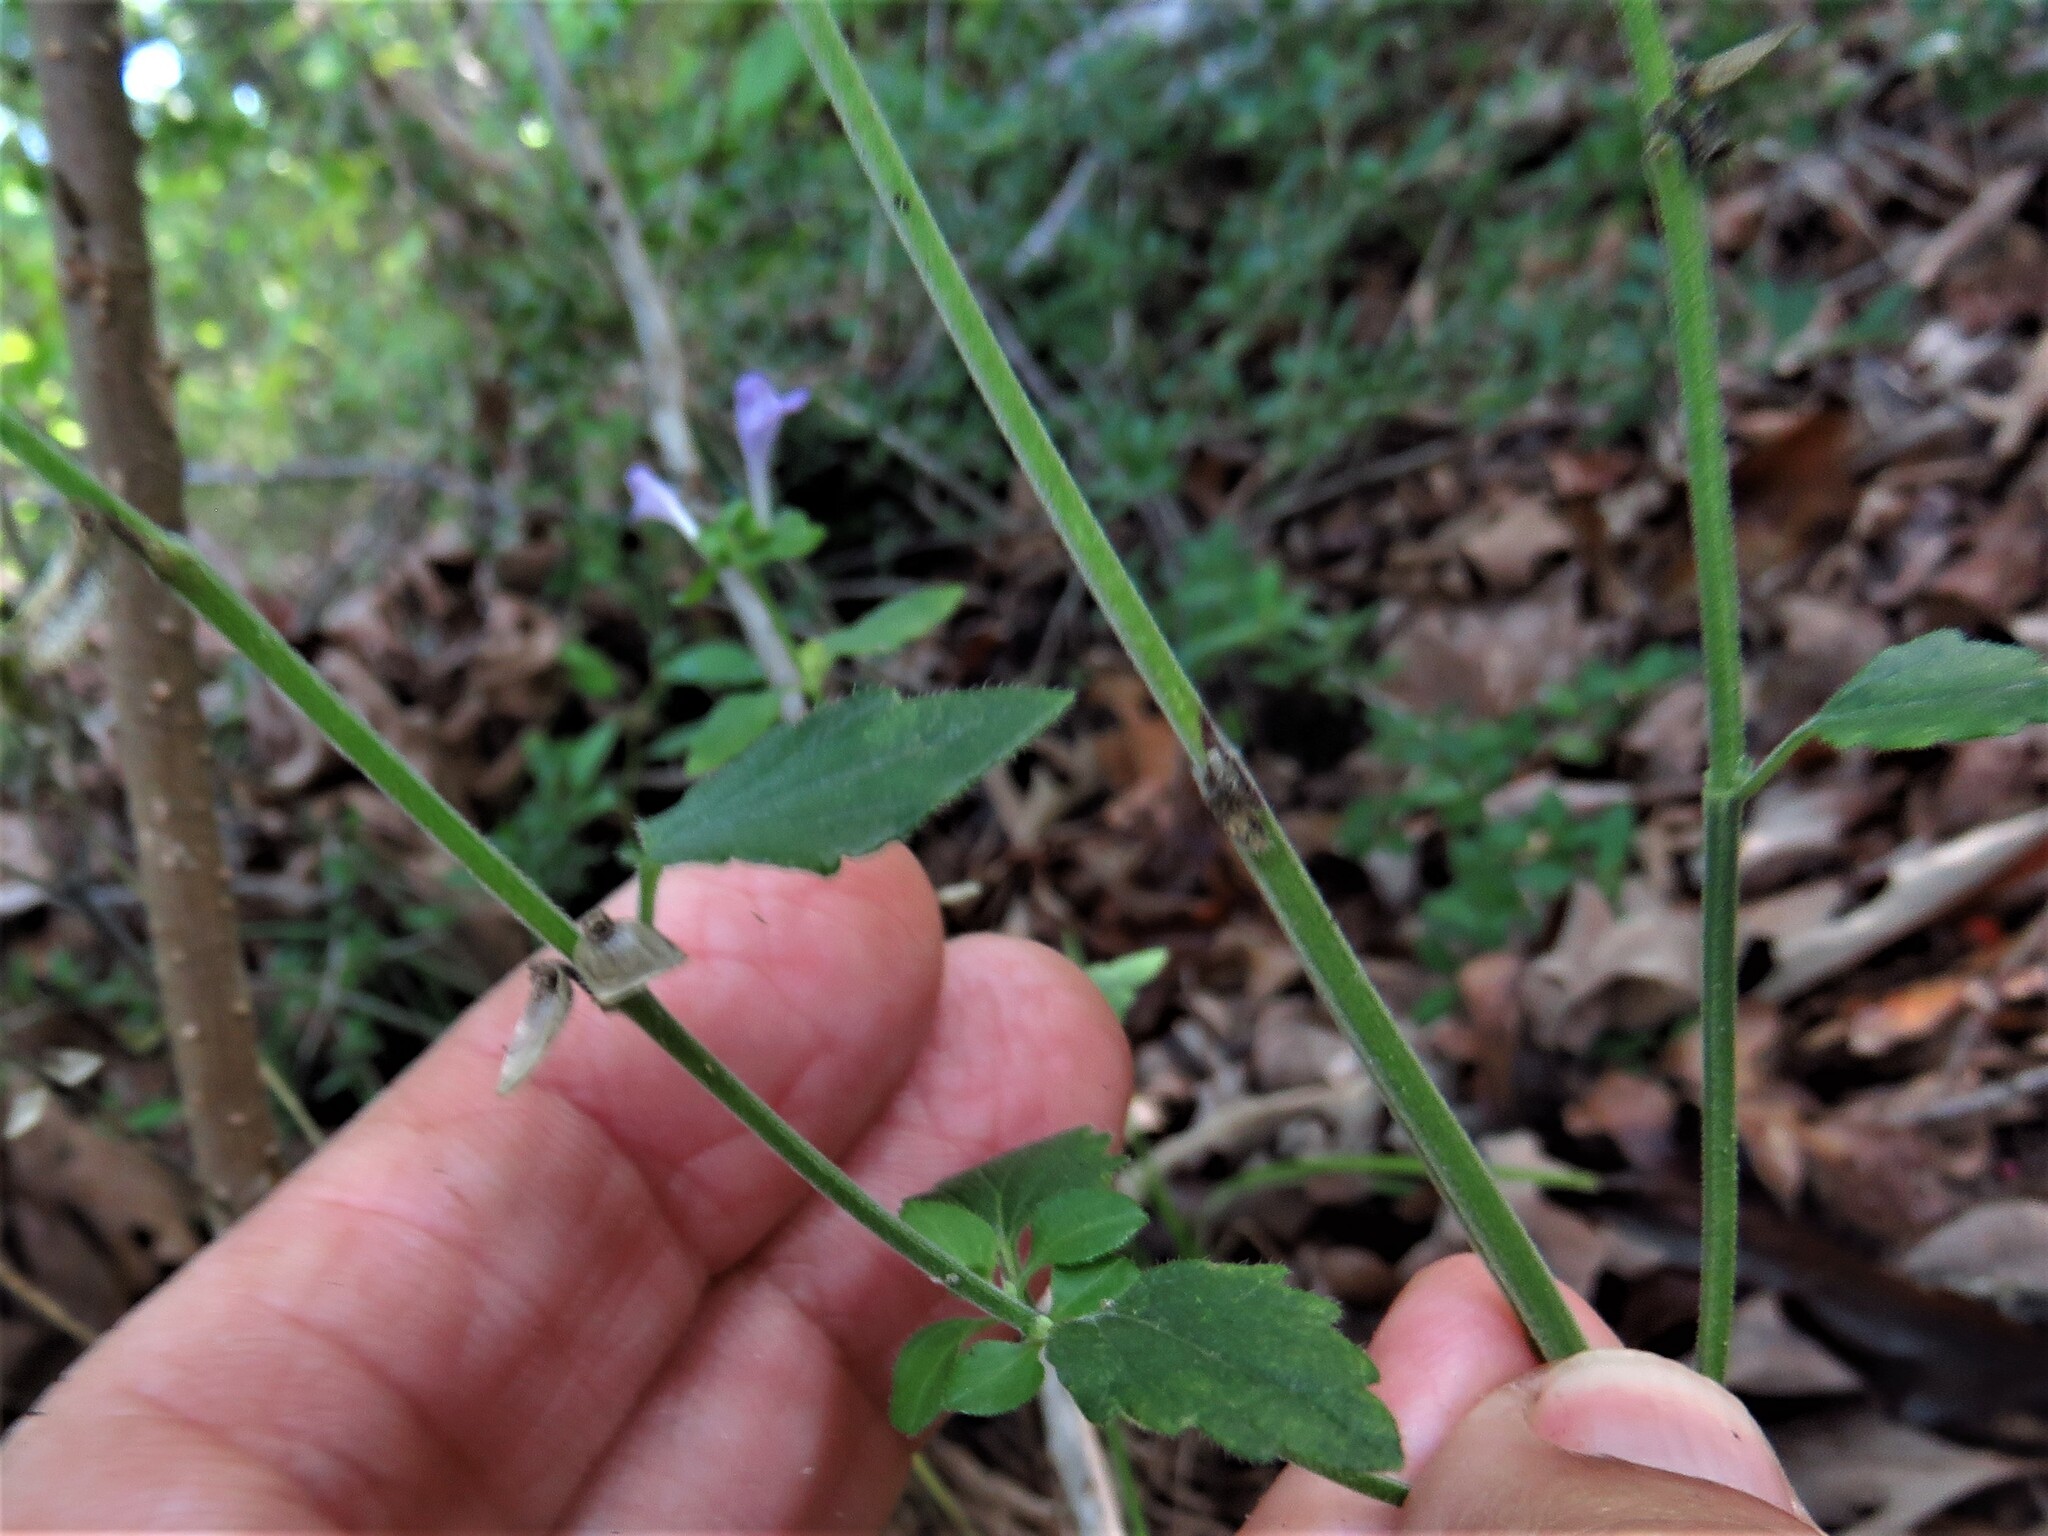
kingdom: Plantae
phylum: Tracheophyta
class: Magnoliopsida
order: Lamiales
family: Lamiaceae
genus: Scutellaria
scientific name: Scutellaria cardiophylla
